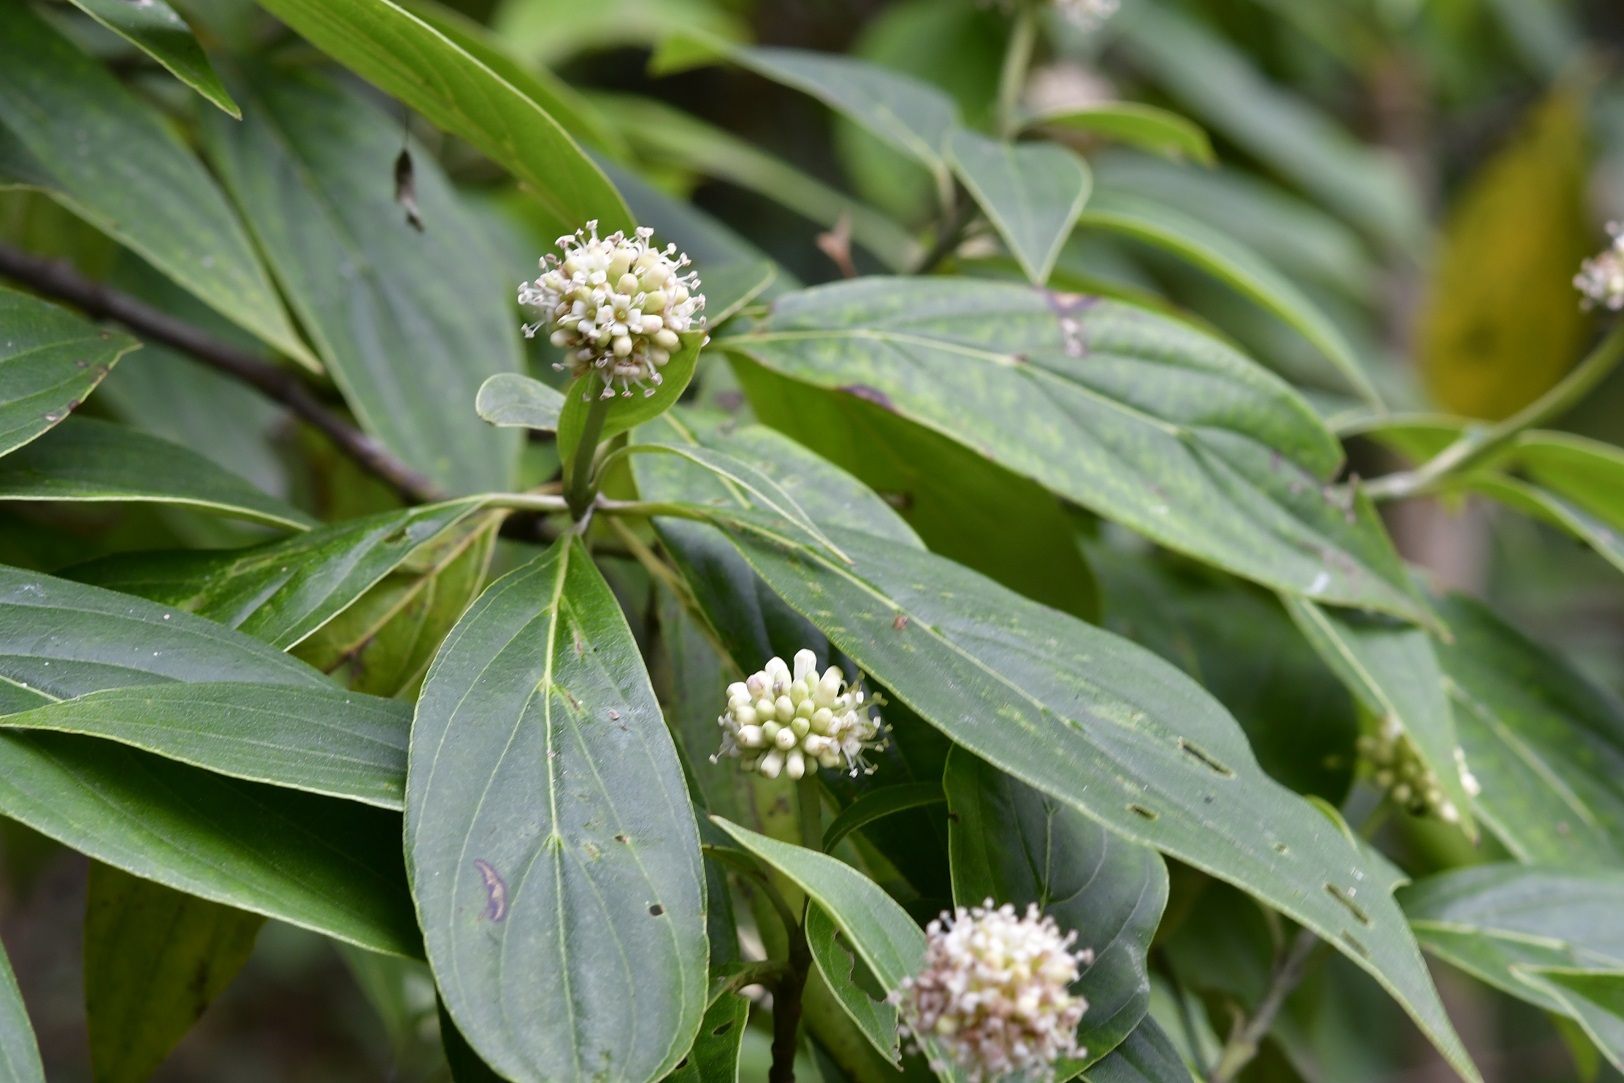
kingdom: Plantae
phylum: Tracheophyta
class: Magnoliopsida
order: Cornales
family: Cornaceae
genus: Cornus
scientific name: Cornus disciflora
